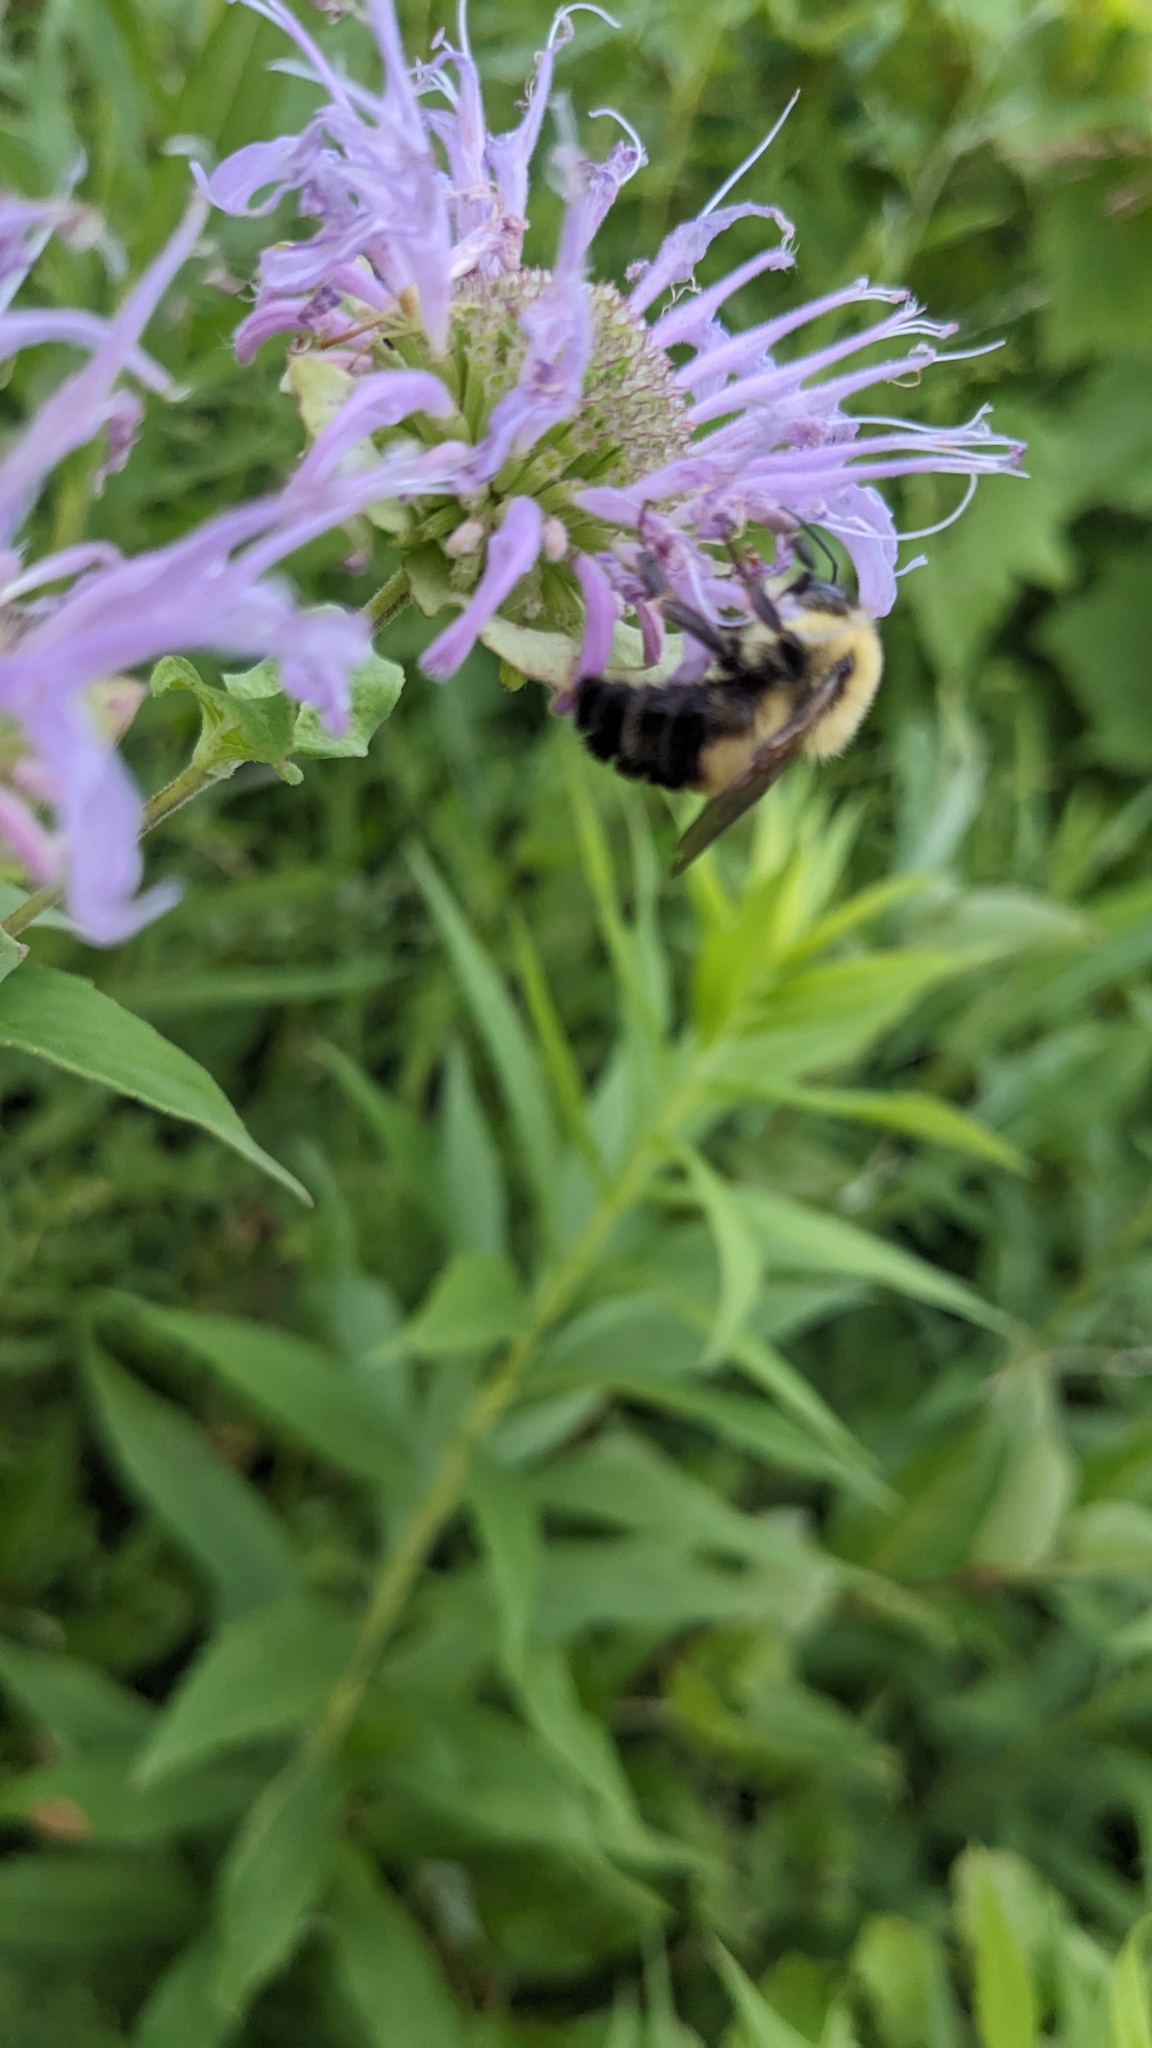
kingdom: Animalia
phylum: Arthropoda
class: Insecta
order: Hymenoptera
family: Apidae
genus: Bombus
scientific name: Bombus bimaculatus
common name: Two-spotted bumble bee
